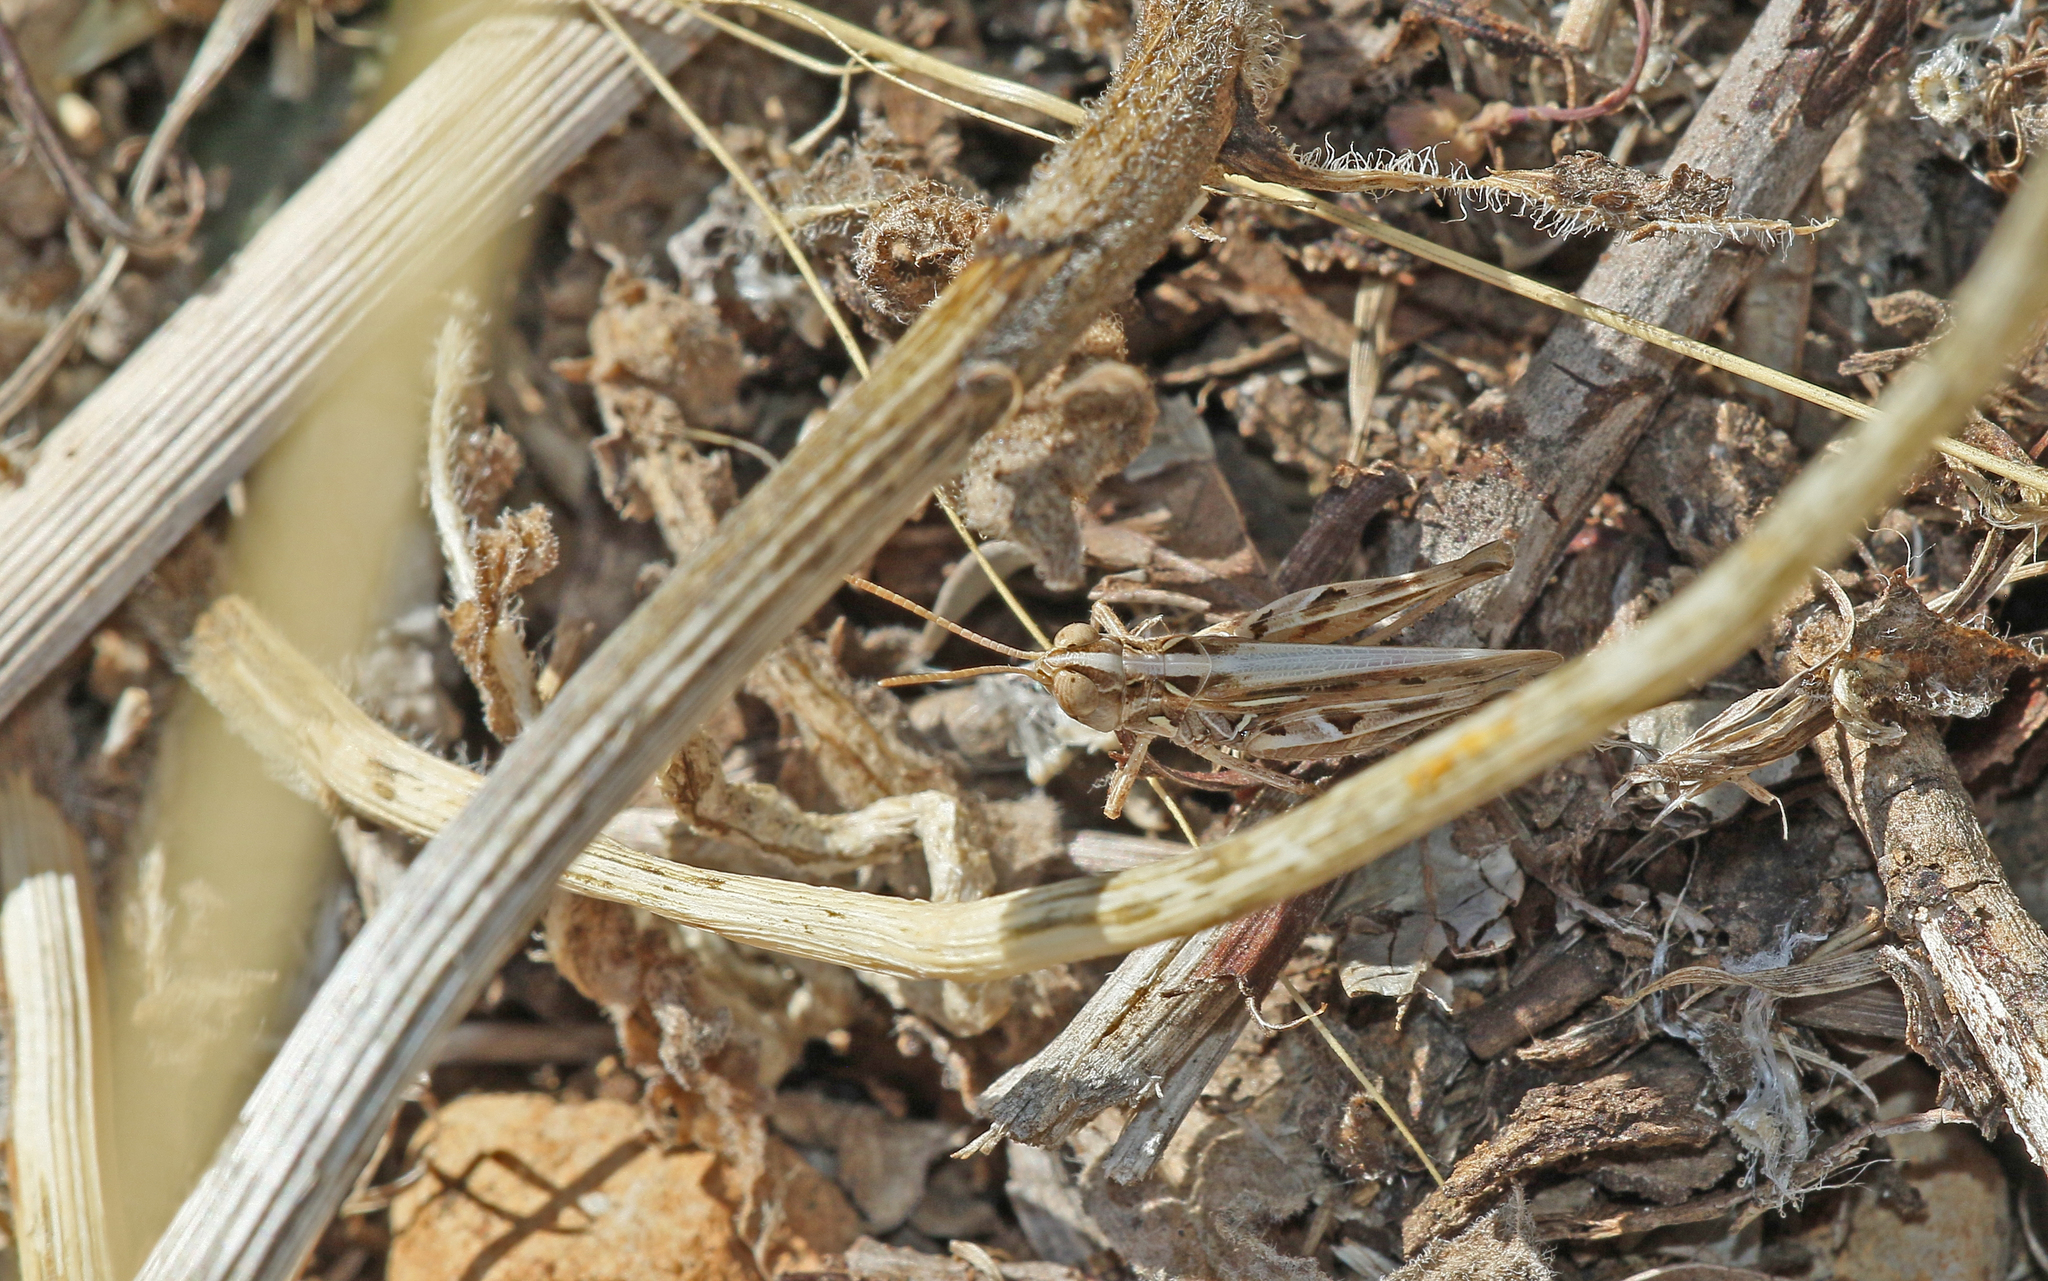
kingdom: Animalia
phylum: Arthropoda
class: Insecta
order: Orthoptera
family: Acrididae
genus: Dociostaurus
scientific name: Dociostaurus jagoi
